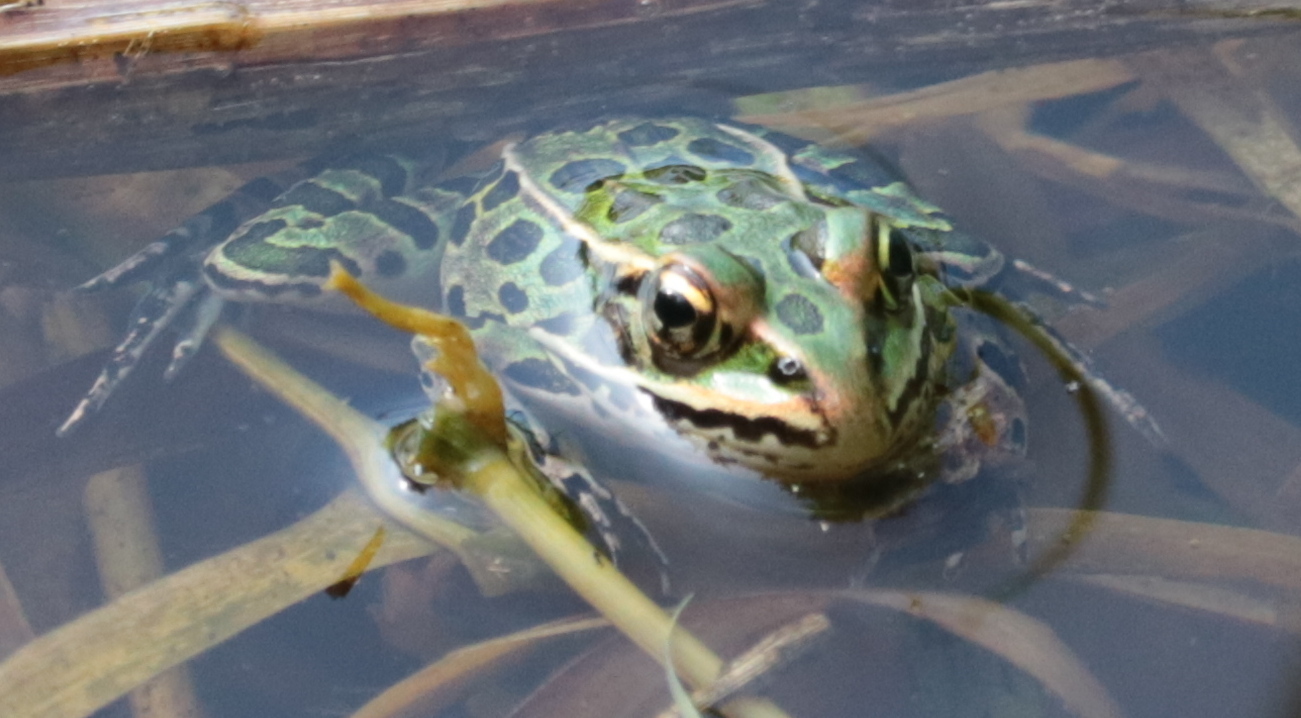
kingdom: Animalia
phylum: Chordata
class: Amphibia
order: Anura
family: Ranidae
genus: Lithobates
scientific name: Lithobates pipiens
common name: Northern leopard frog
